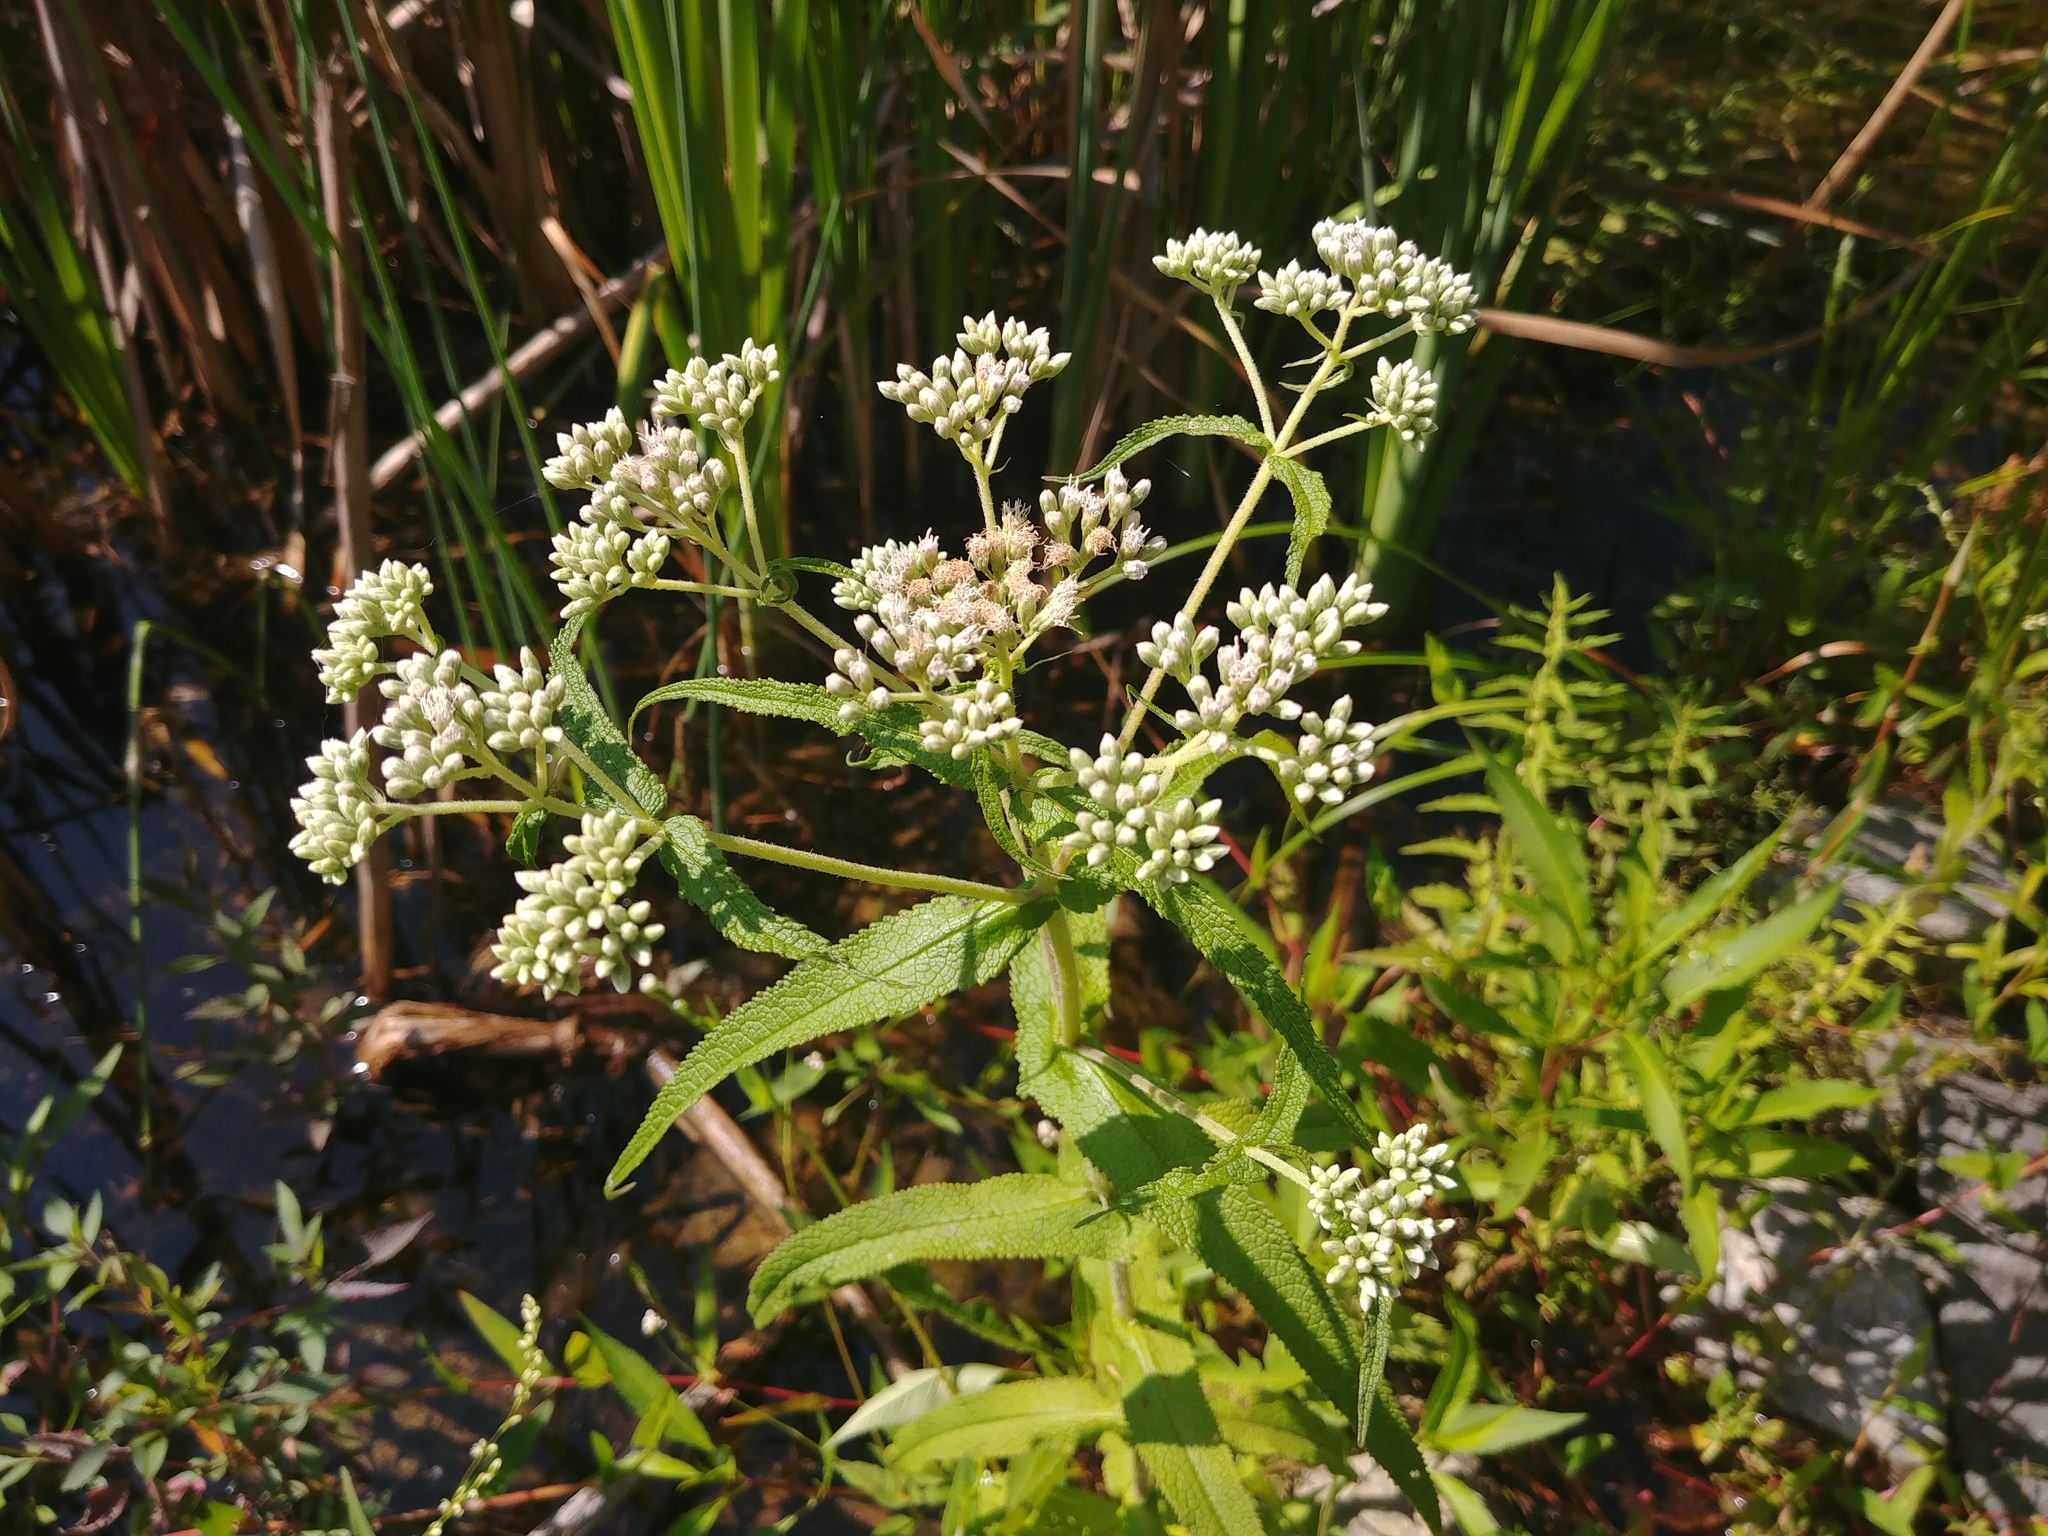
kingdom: Plantae
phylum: Tracheophyta
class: Magnoliopsida
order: Asterales
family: Asteraceae
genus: Eupatorium
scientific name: Eupatorium perfoliatum
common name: Boneset
